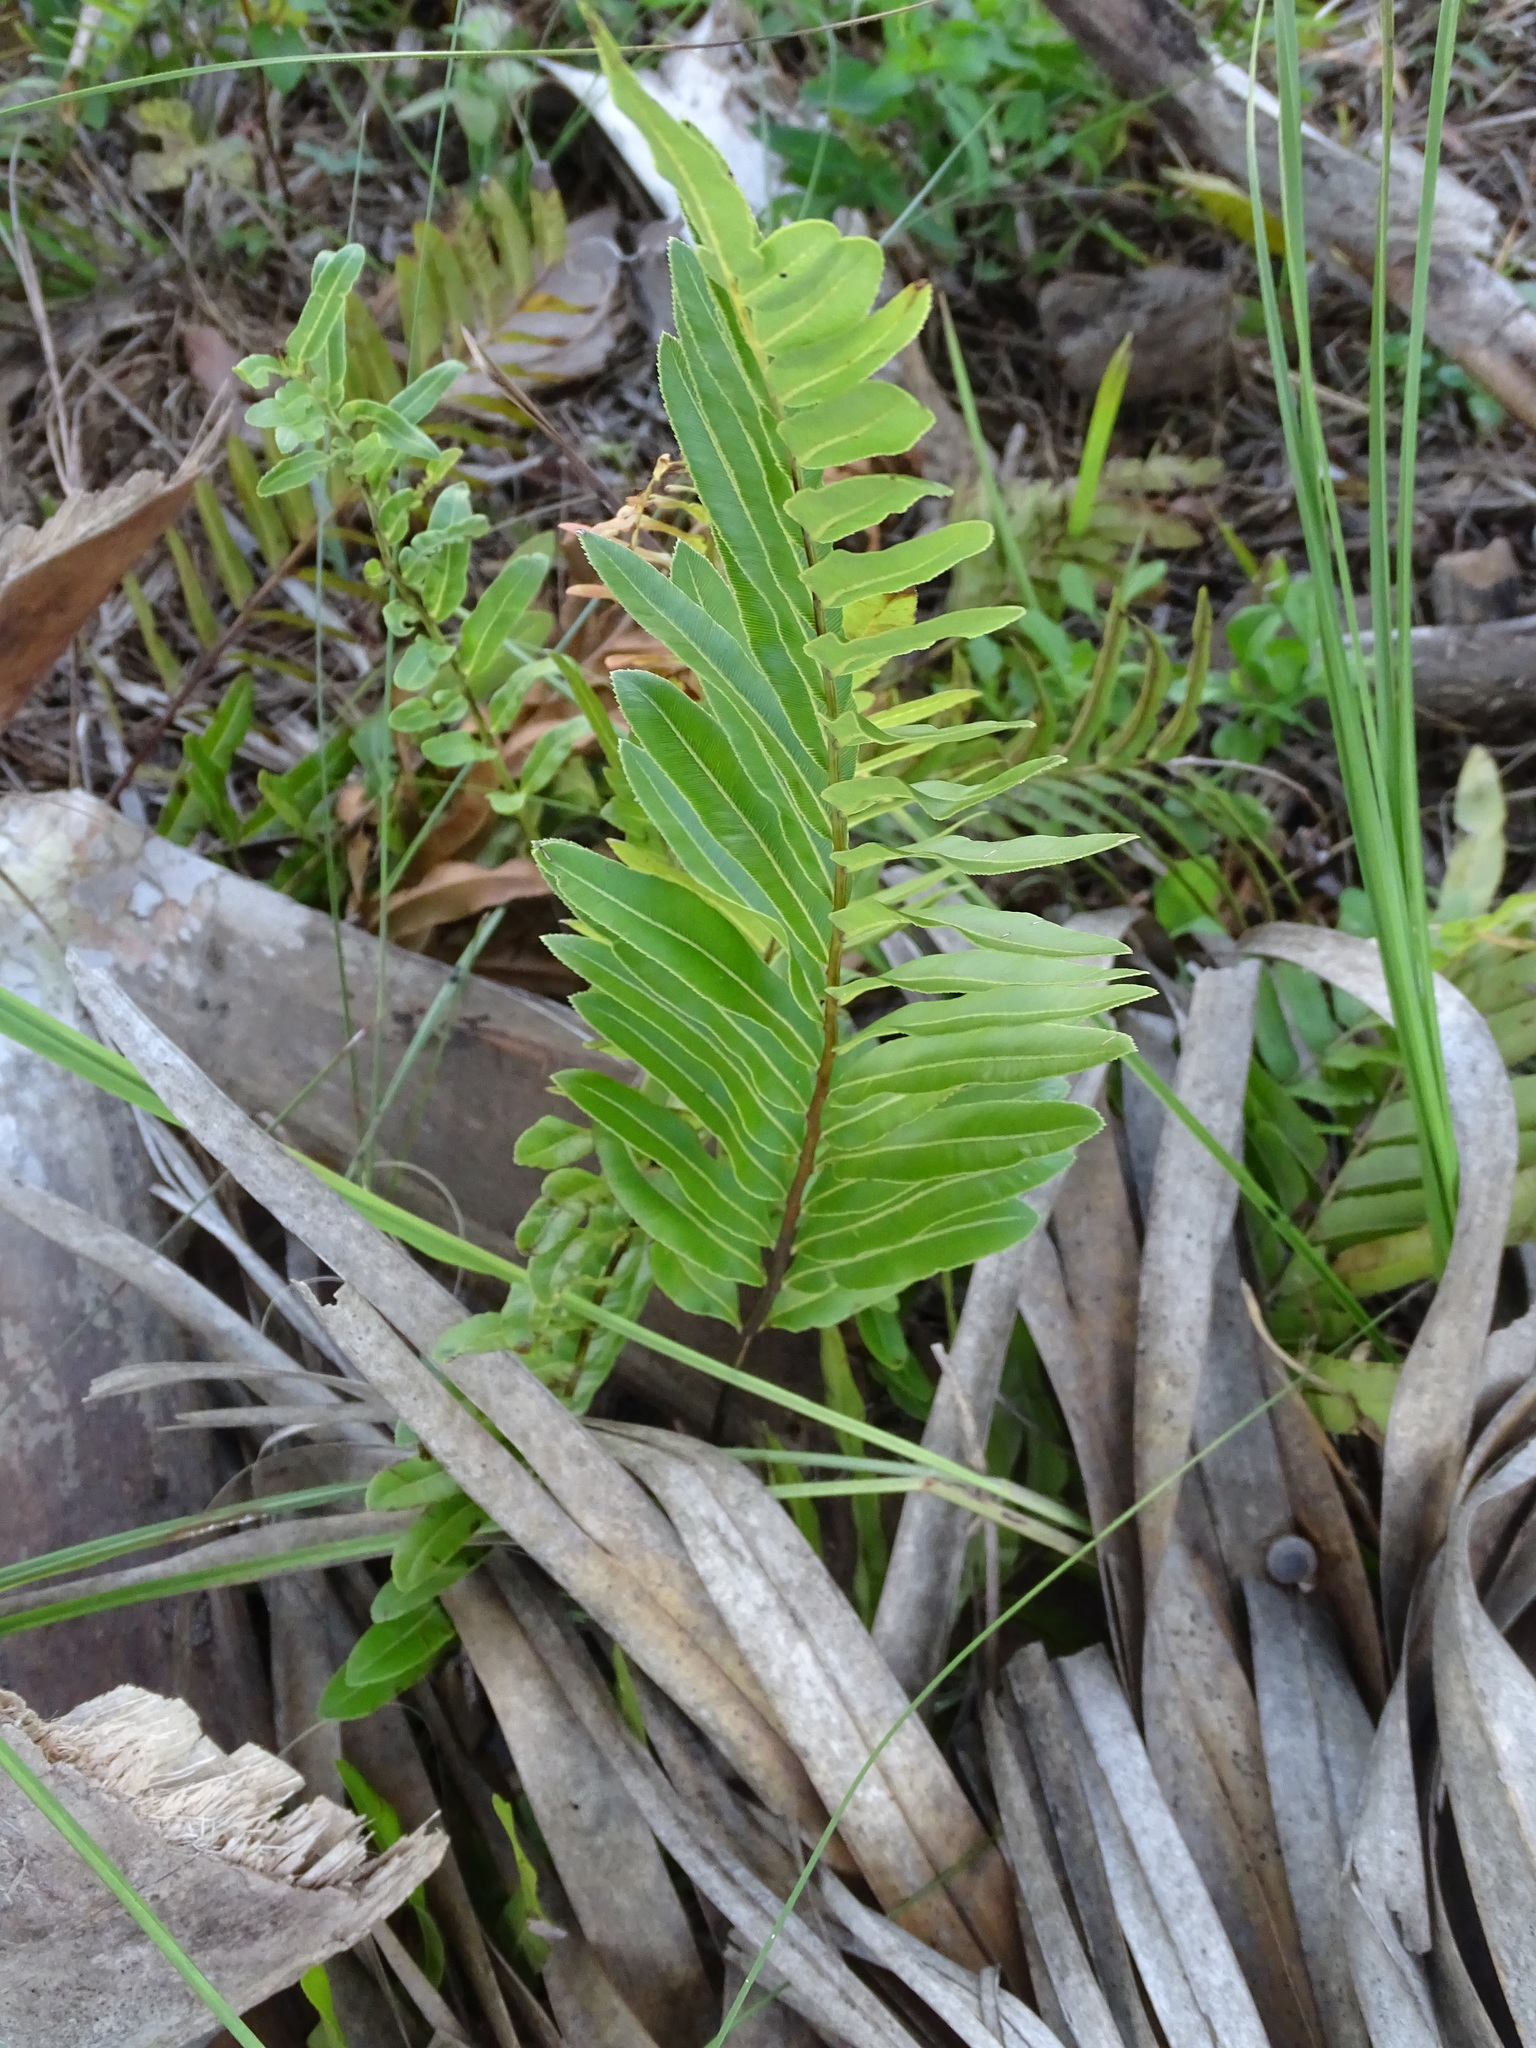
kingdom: Plantae
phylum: Tracheophyta
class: Polypodiopsida
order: Polypodiales
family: Blechnaceae
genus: Telmatoblechnum
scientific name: Telmatoblechnum serrulatum
